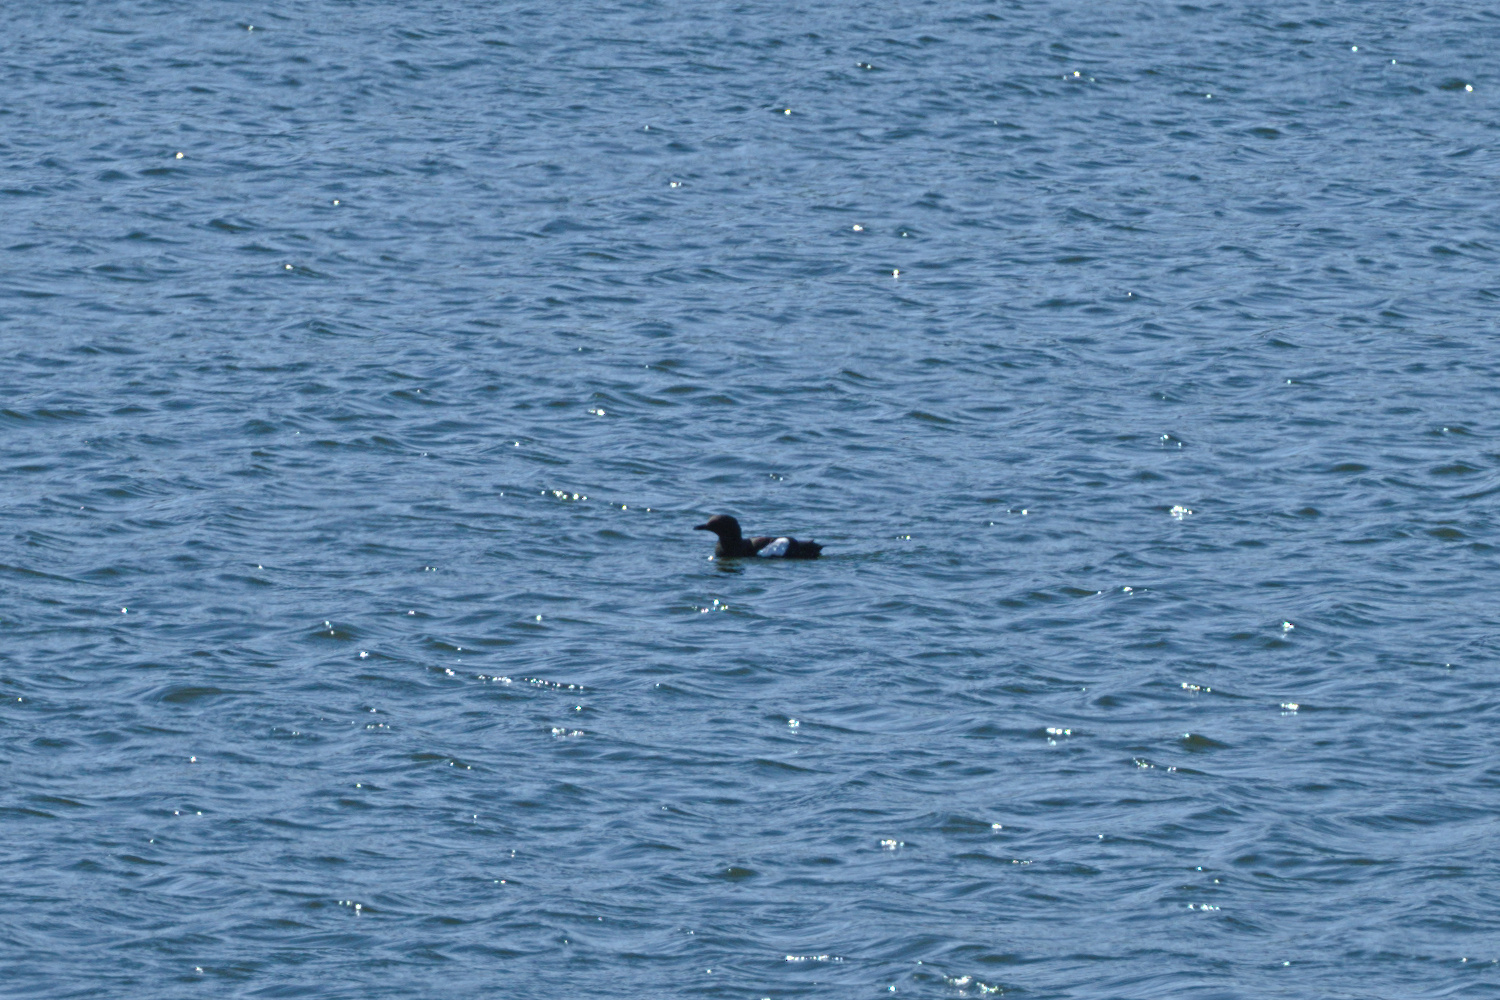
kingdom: Animalia
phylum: Chordata
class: Aves
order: Charadriiformes
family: Alcidae
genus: Cepphus
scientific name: Cepphus grylle
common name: Black guillemot
